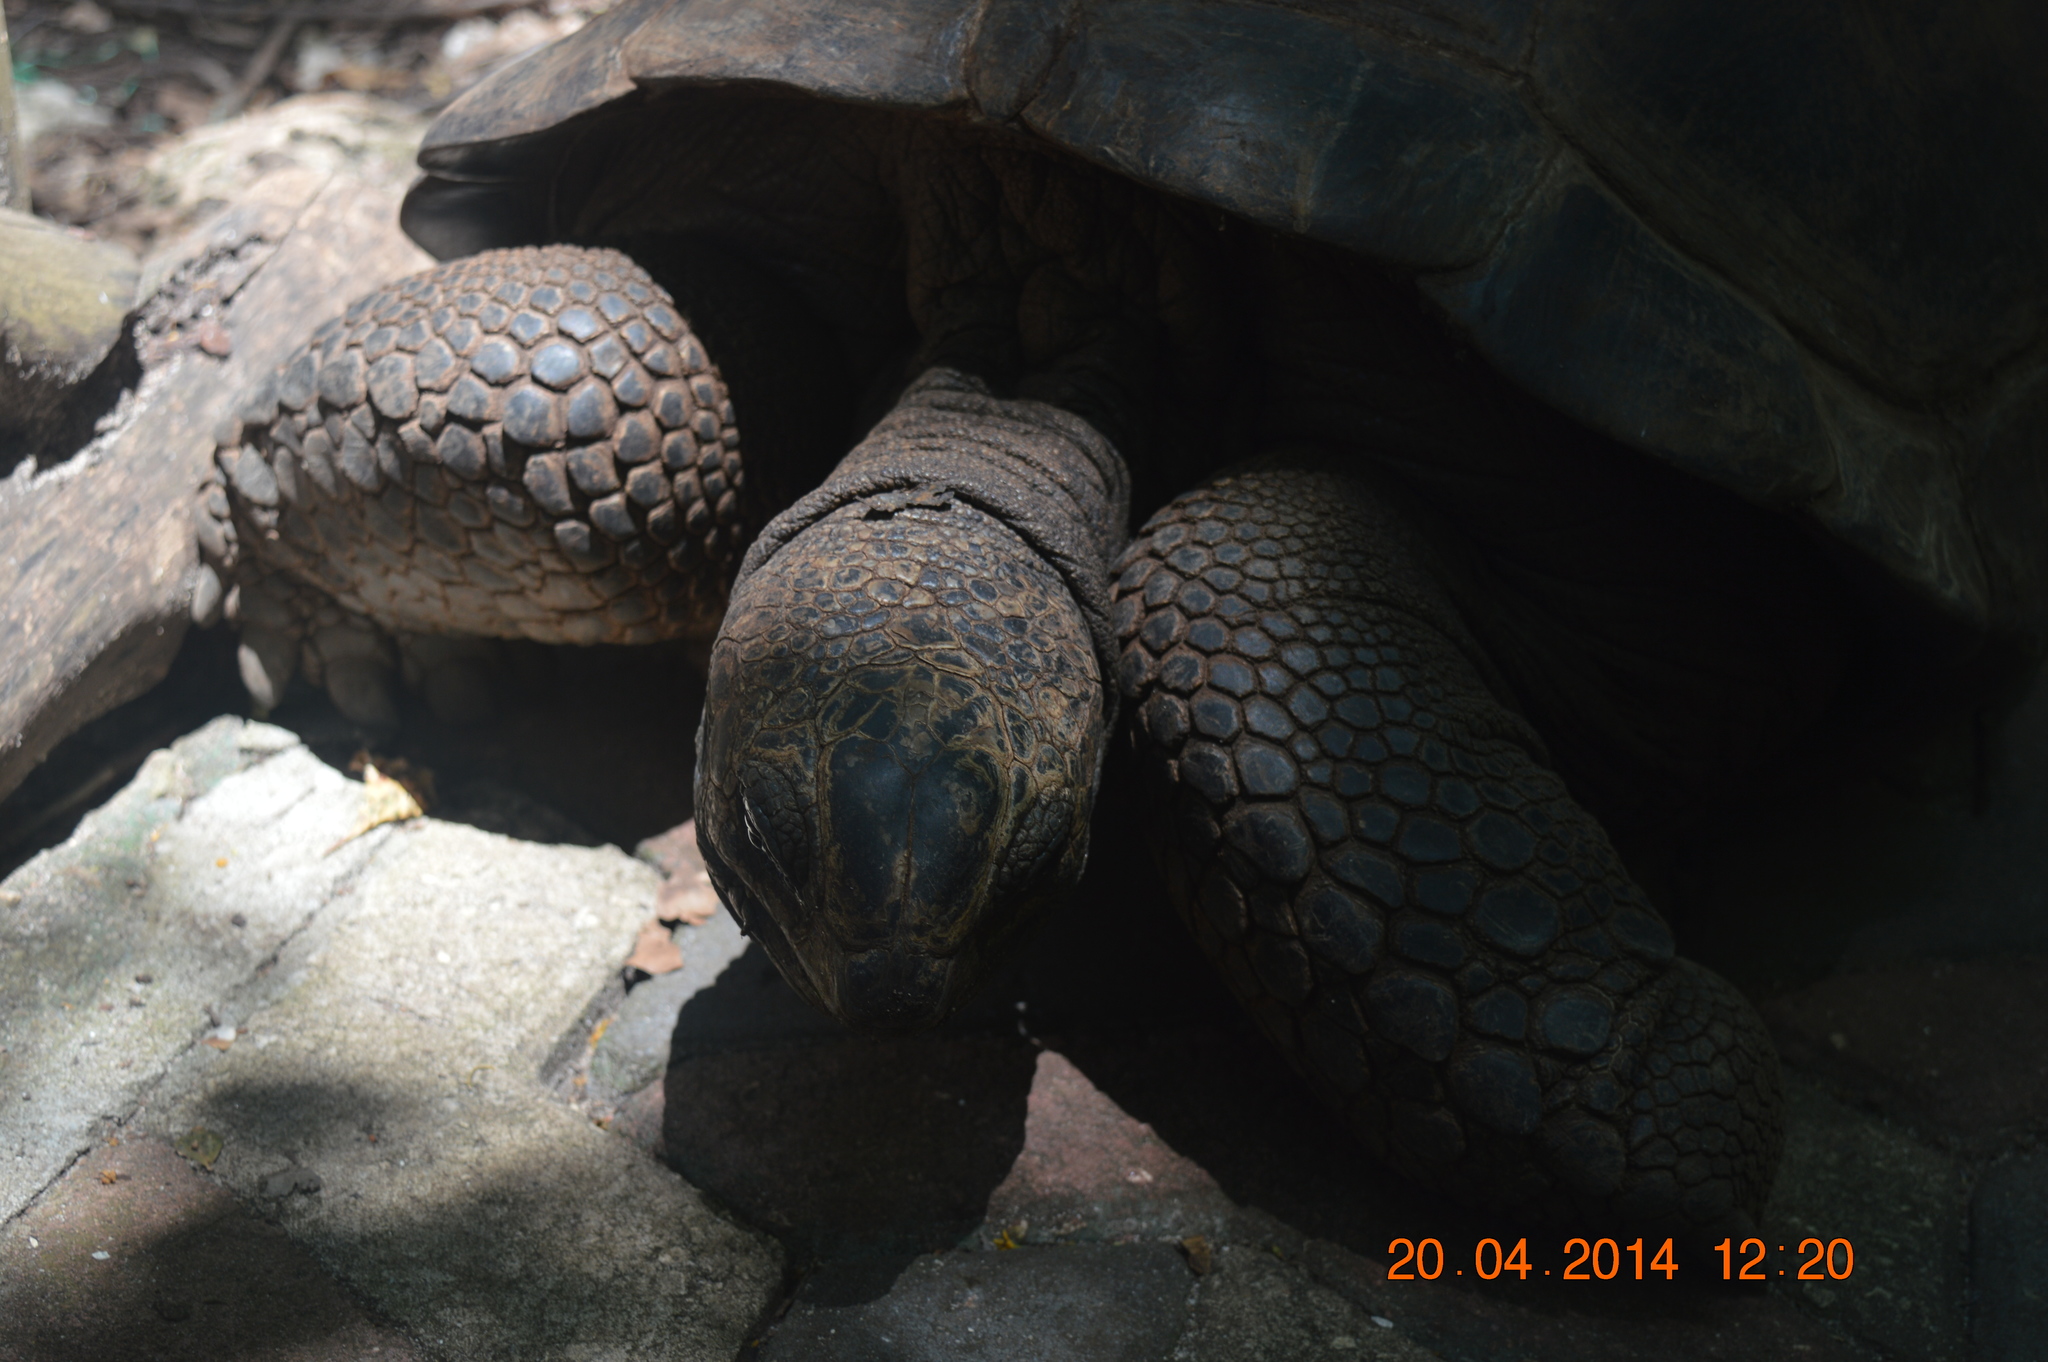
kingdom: Animalia
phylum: Chordata
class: Testudines
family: Testudinidae
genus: Aldabrachelys
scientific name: Aldabrachelys gigantea
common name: Aldabra giant tortoise
